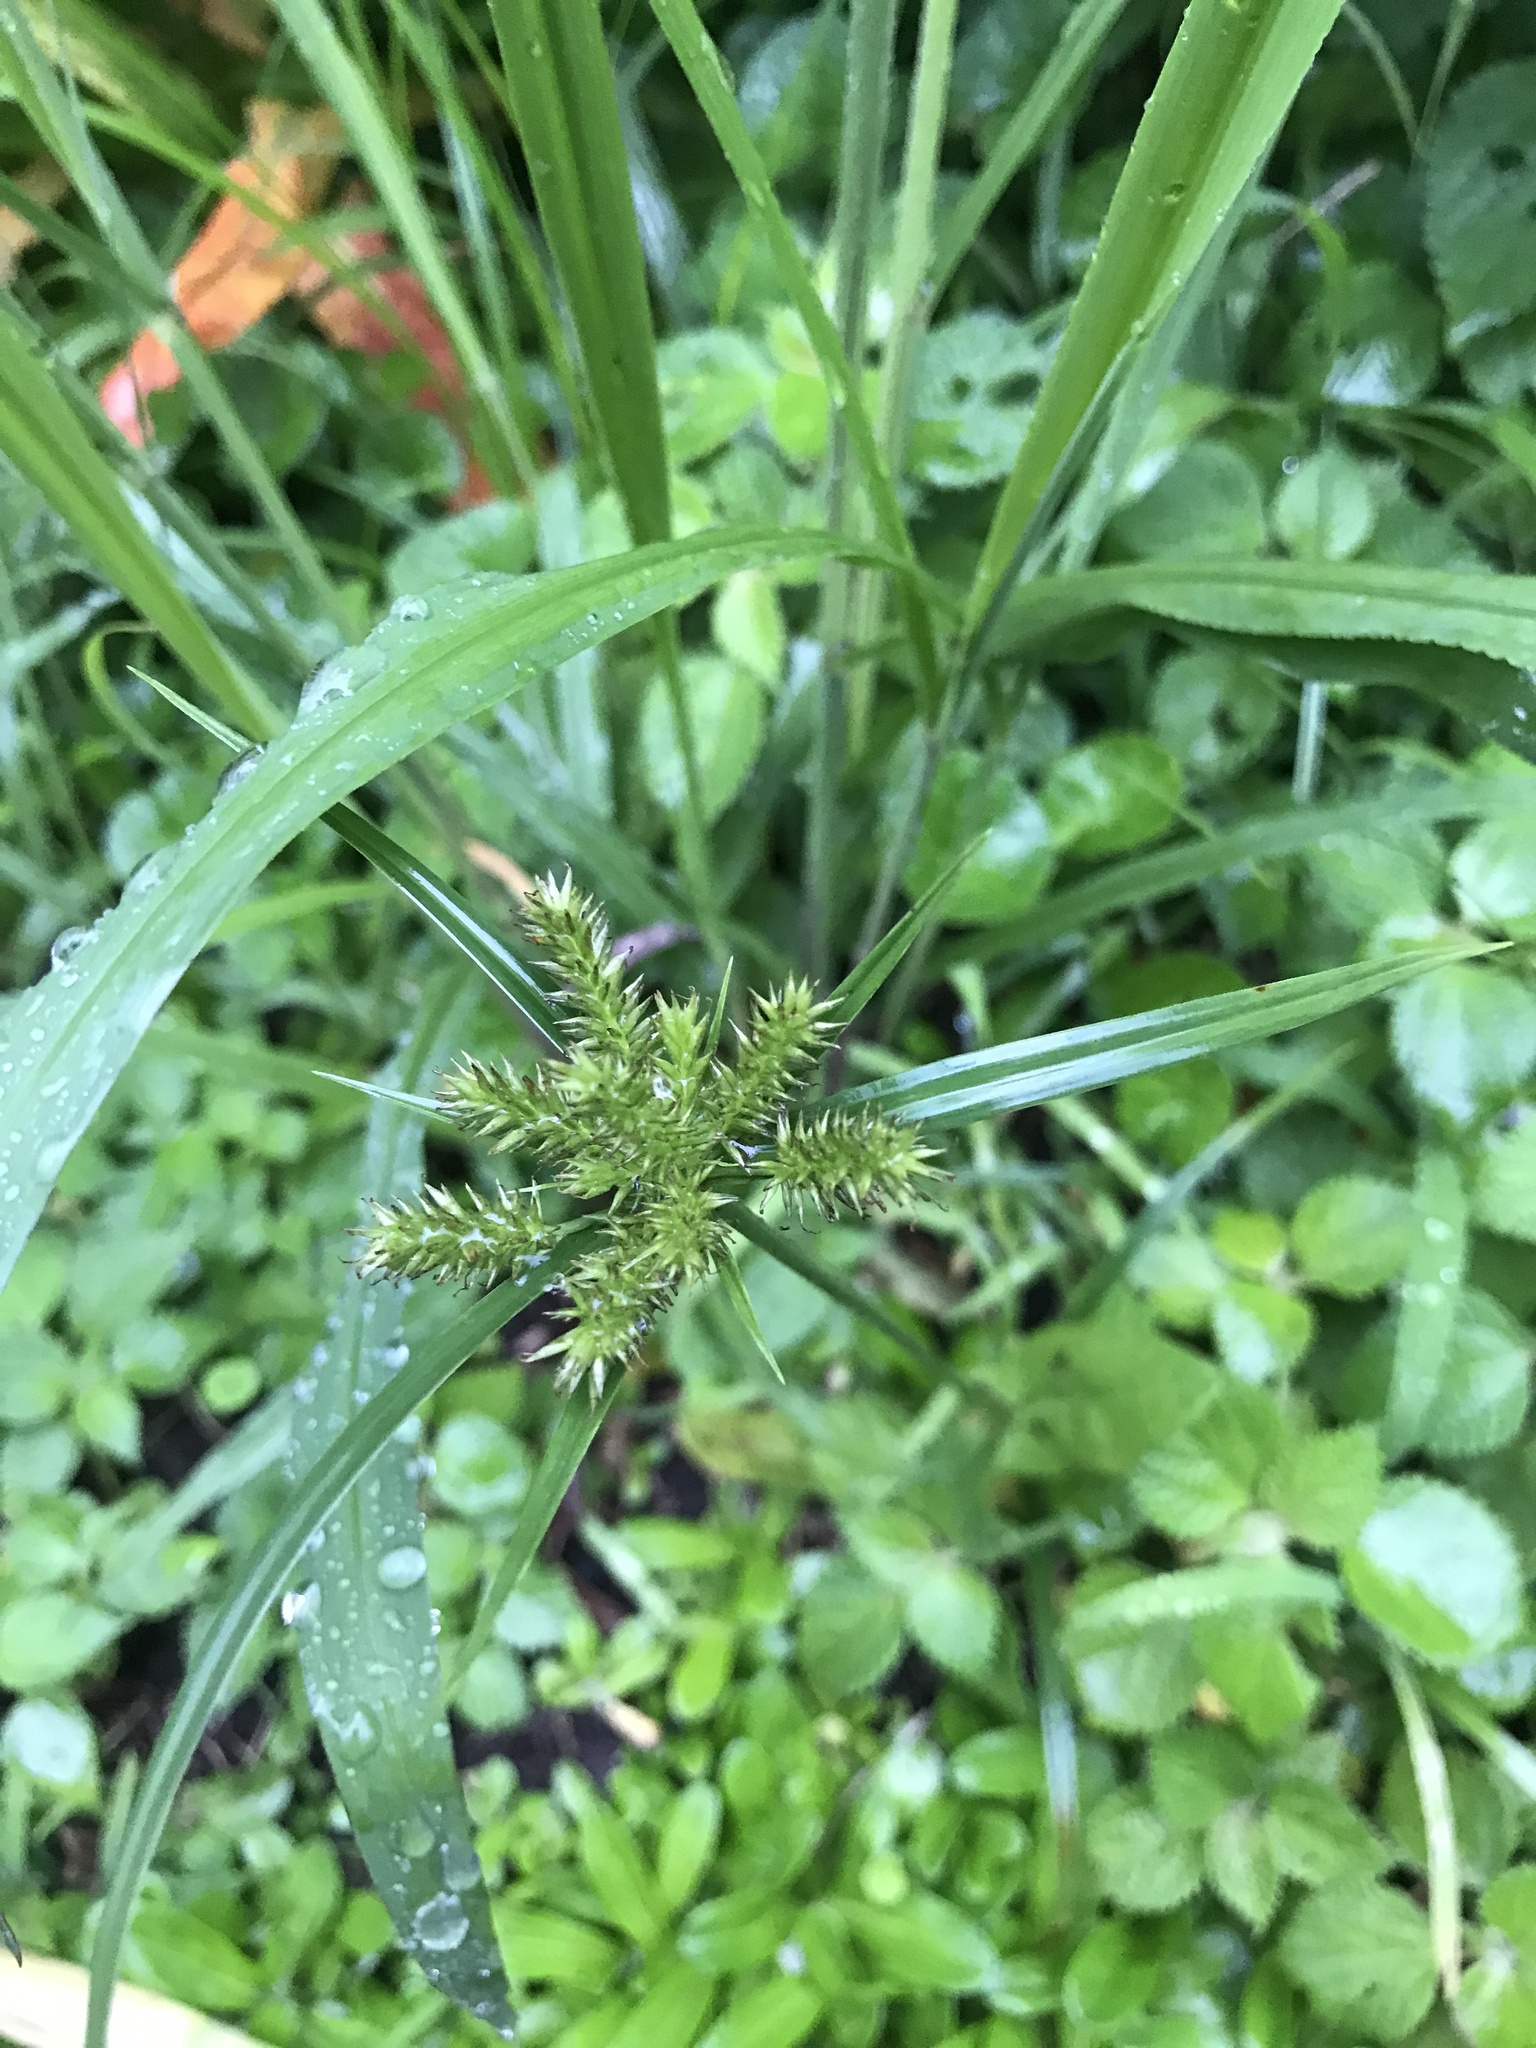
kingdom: Plantae
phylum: Tracheophyta
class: Liliopsida
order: Poales
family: Cyperaceae
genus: Cyperus
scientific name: Cyperus cyperoides
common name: Pacific island flat sedge
